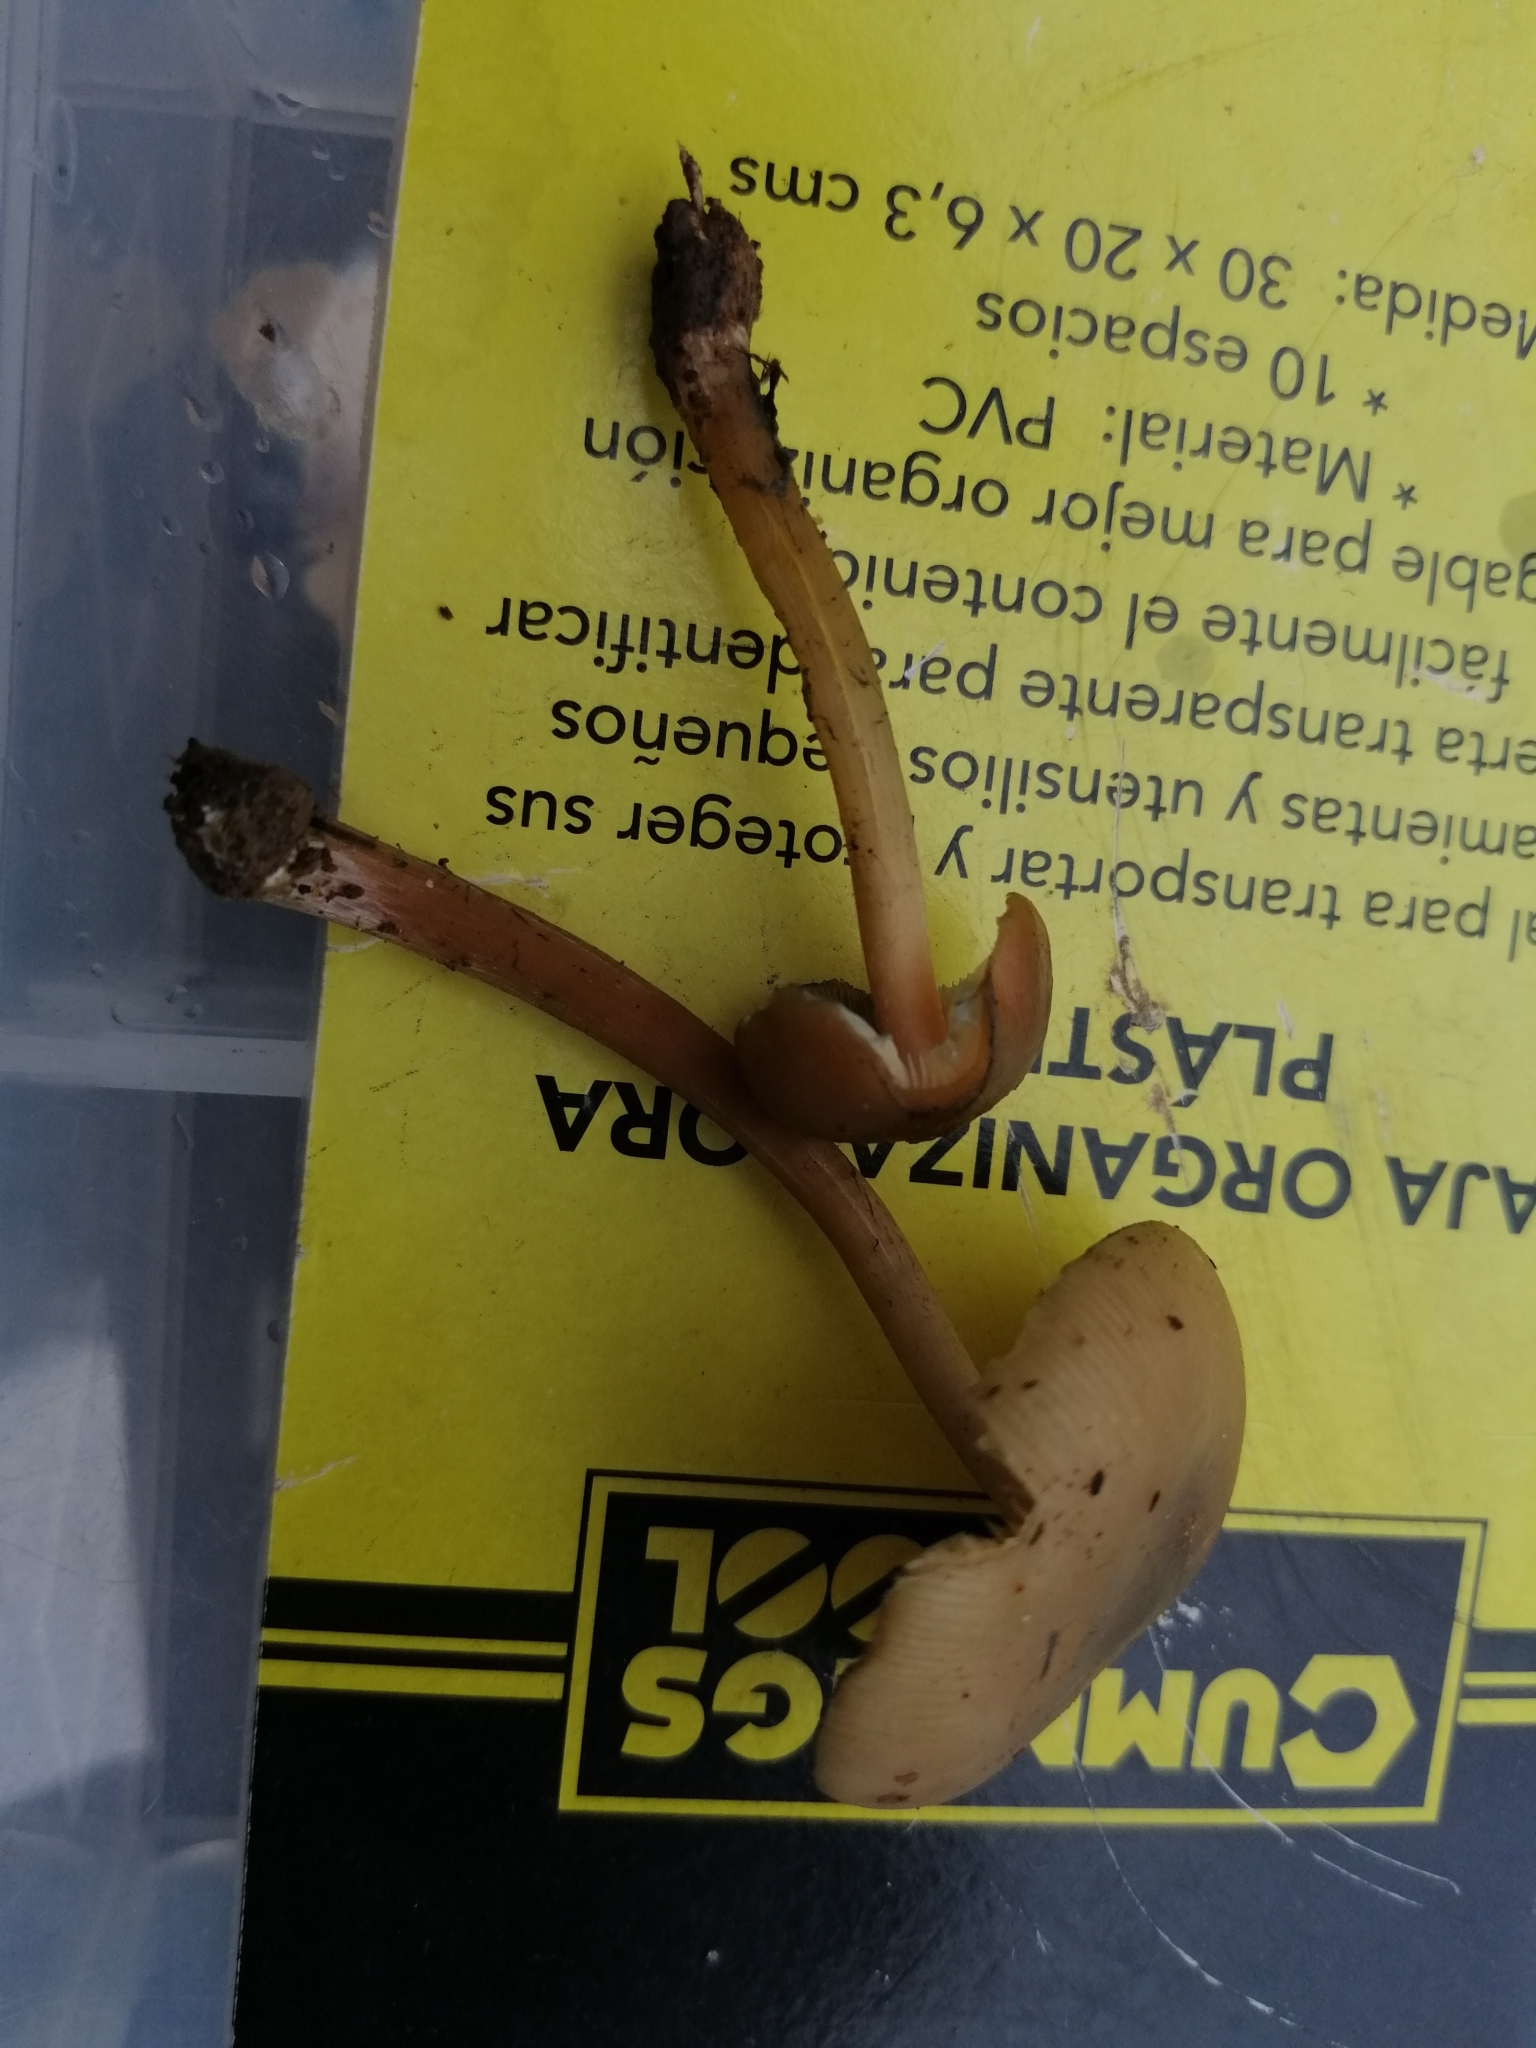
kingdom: Fungi
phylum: Basidiomycota
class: Agaricomycetes
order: Agaricales
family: Hymenogastraceae
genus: Psilocybe
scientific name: Psilocybe caerulescens
